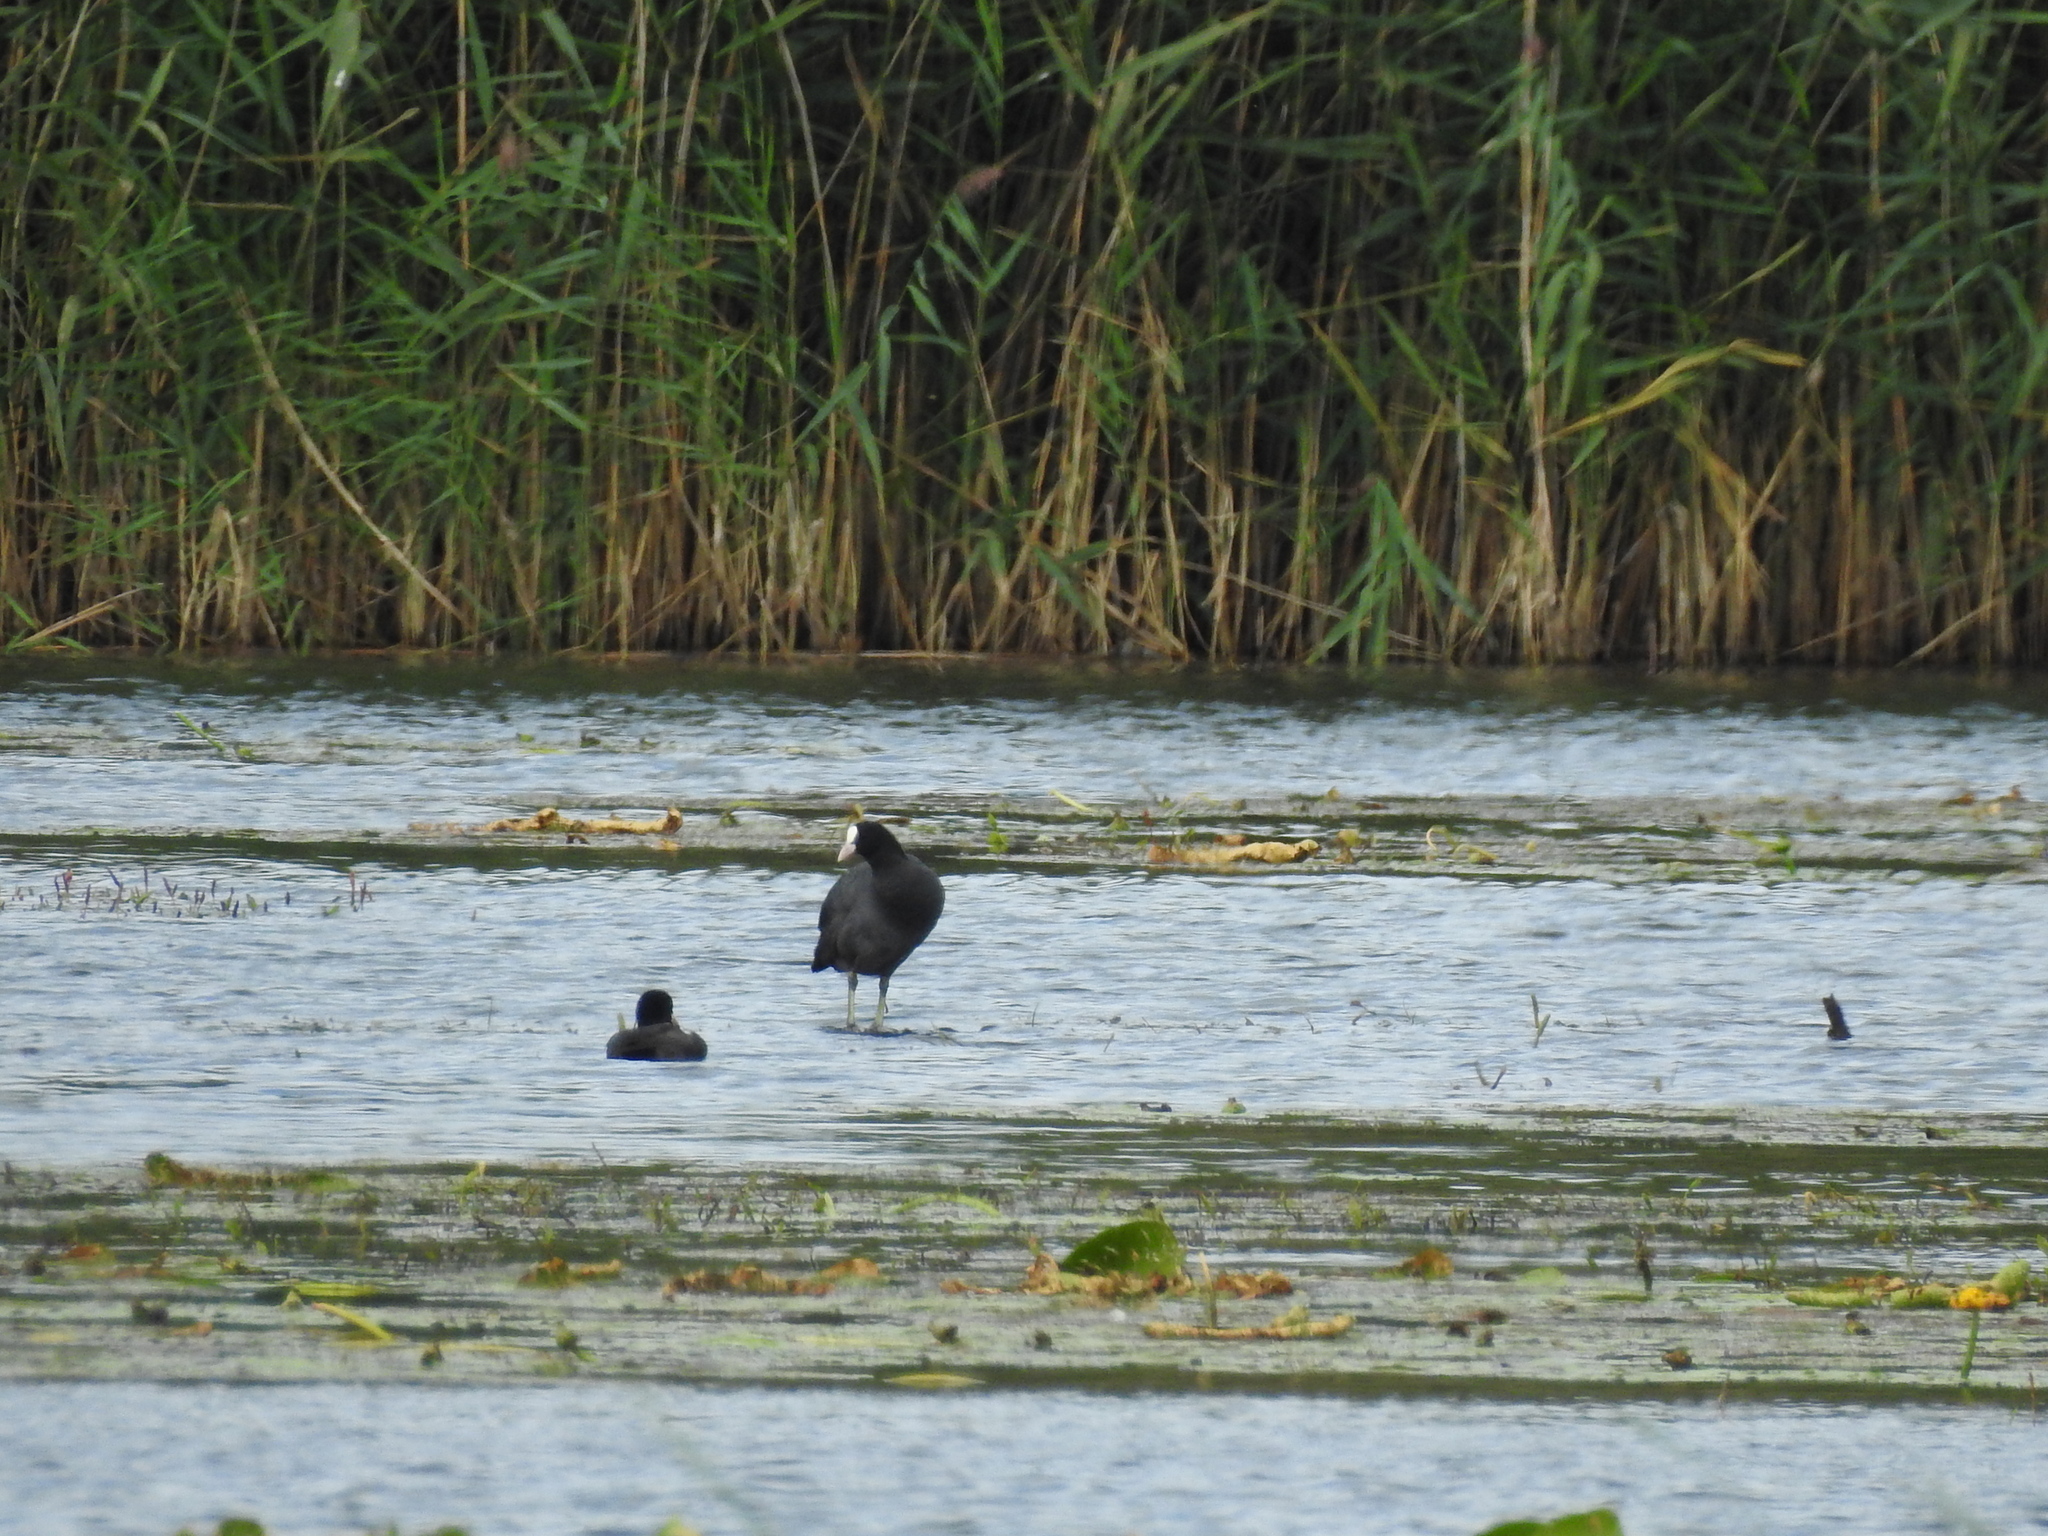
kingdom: Animalia
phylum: Chordata
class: Aves
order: Gruiformes
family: Rallidae
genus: Fulica
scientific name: Fulica atra
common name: Eurasian coot
